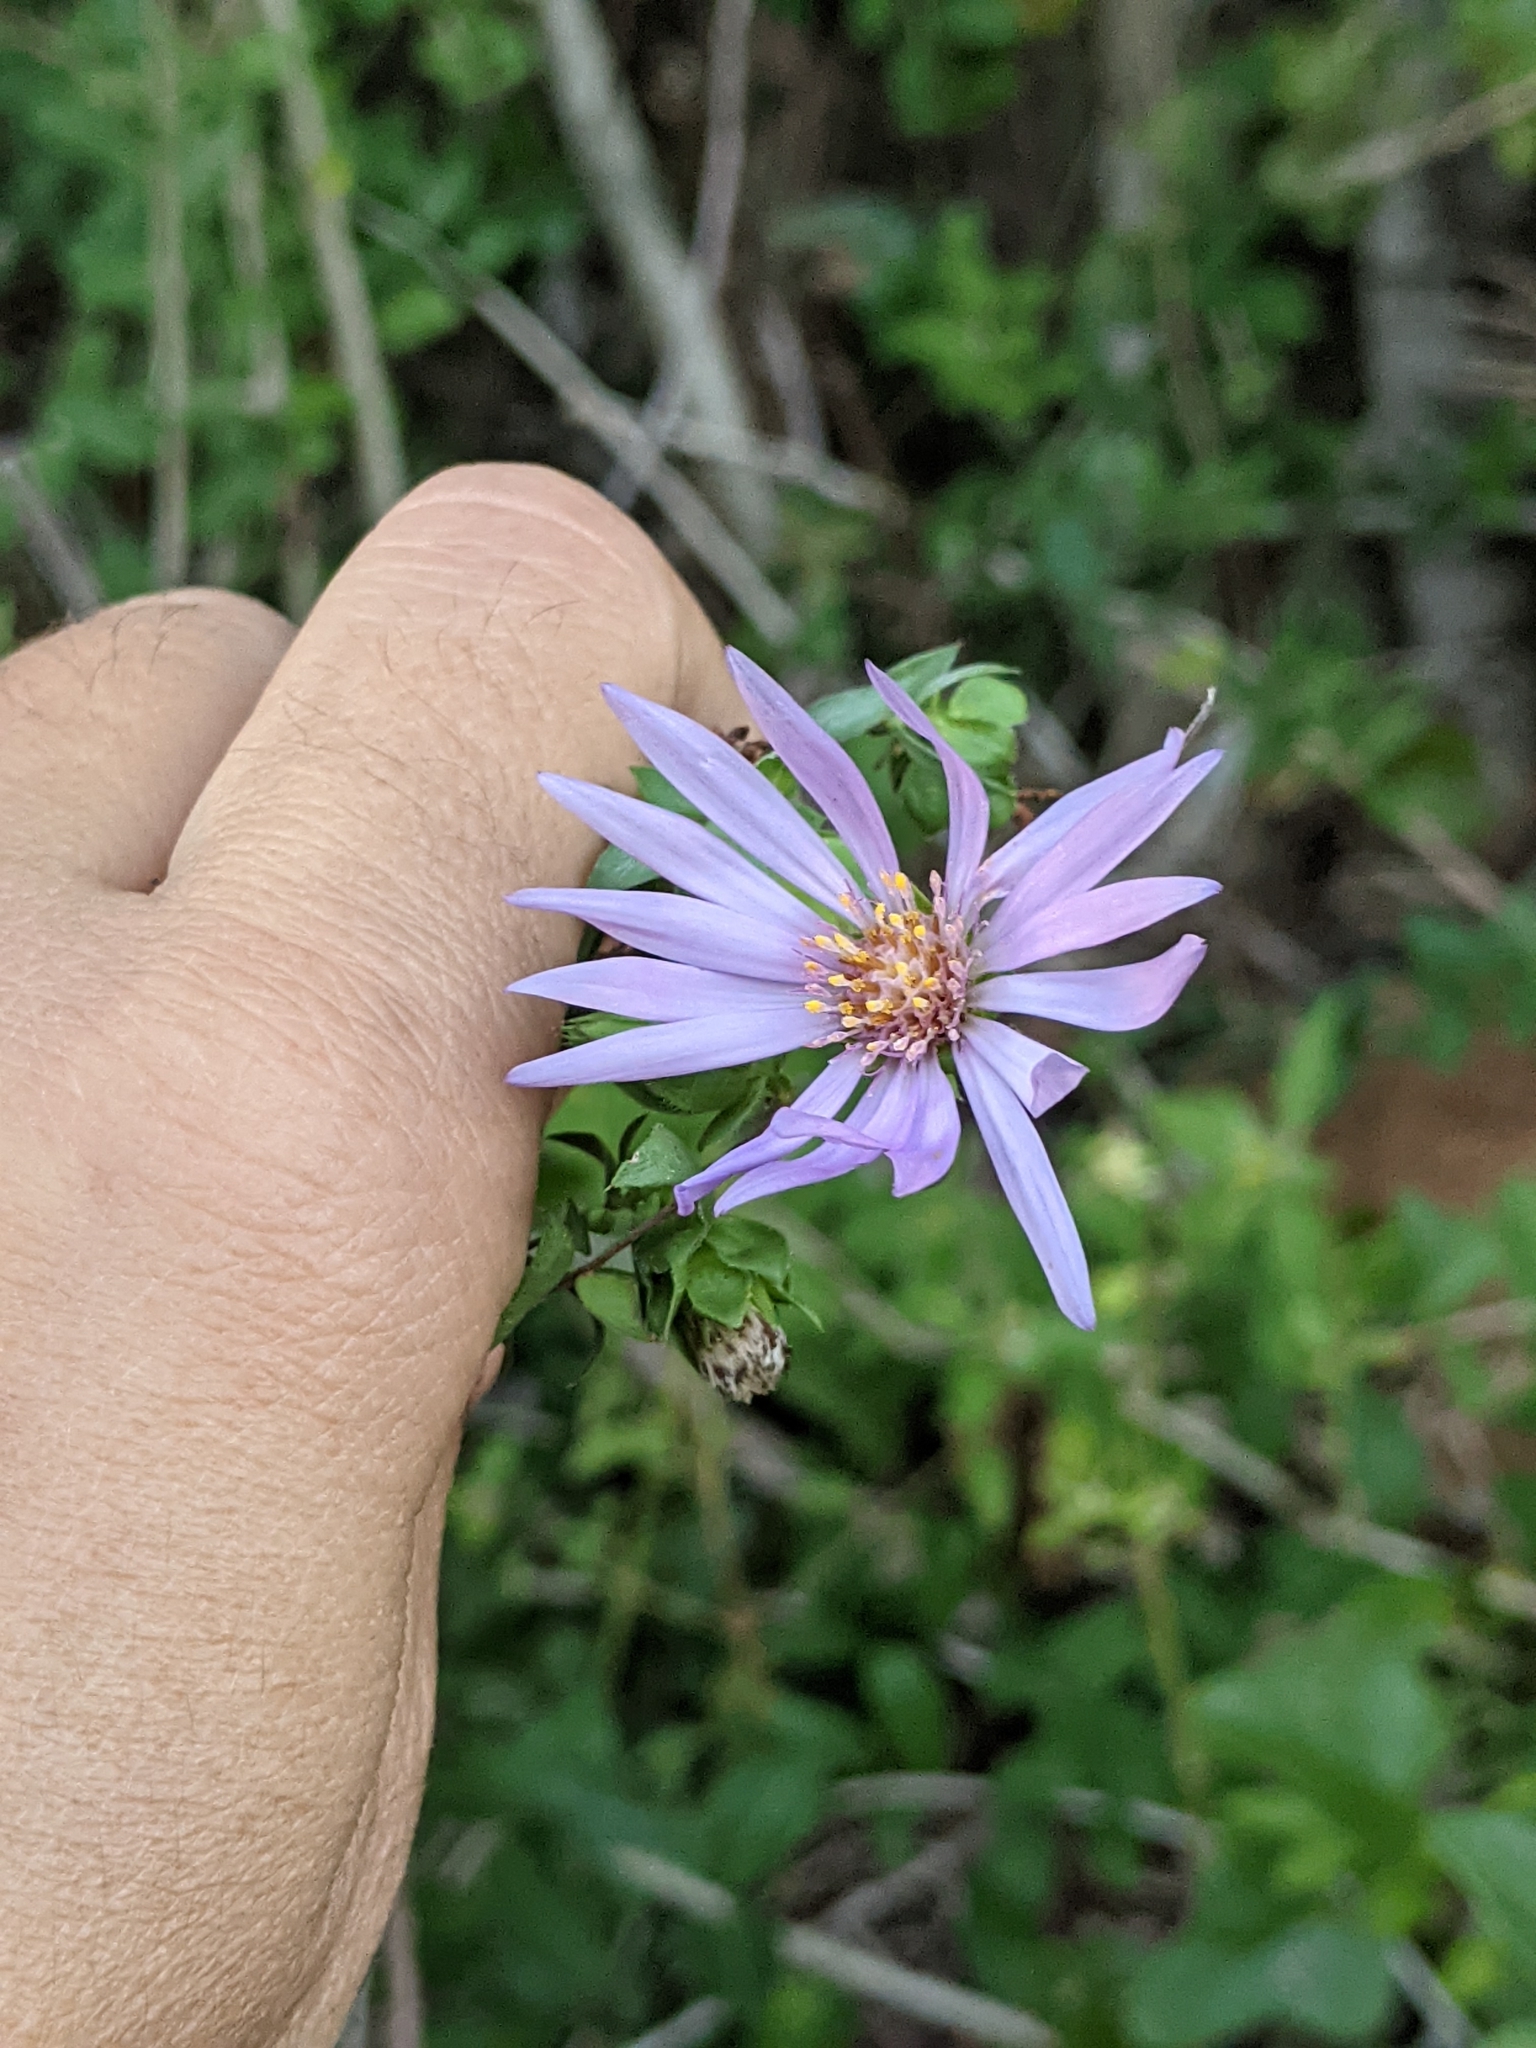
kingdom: Plantae
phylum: Tracheophyta
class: Magnoliopsida
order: Asterales
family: Asteraceae
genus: Symphyotrichum
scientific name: Symphyotrichum pratense
